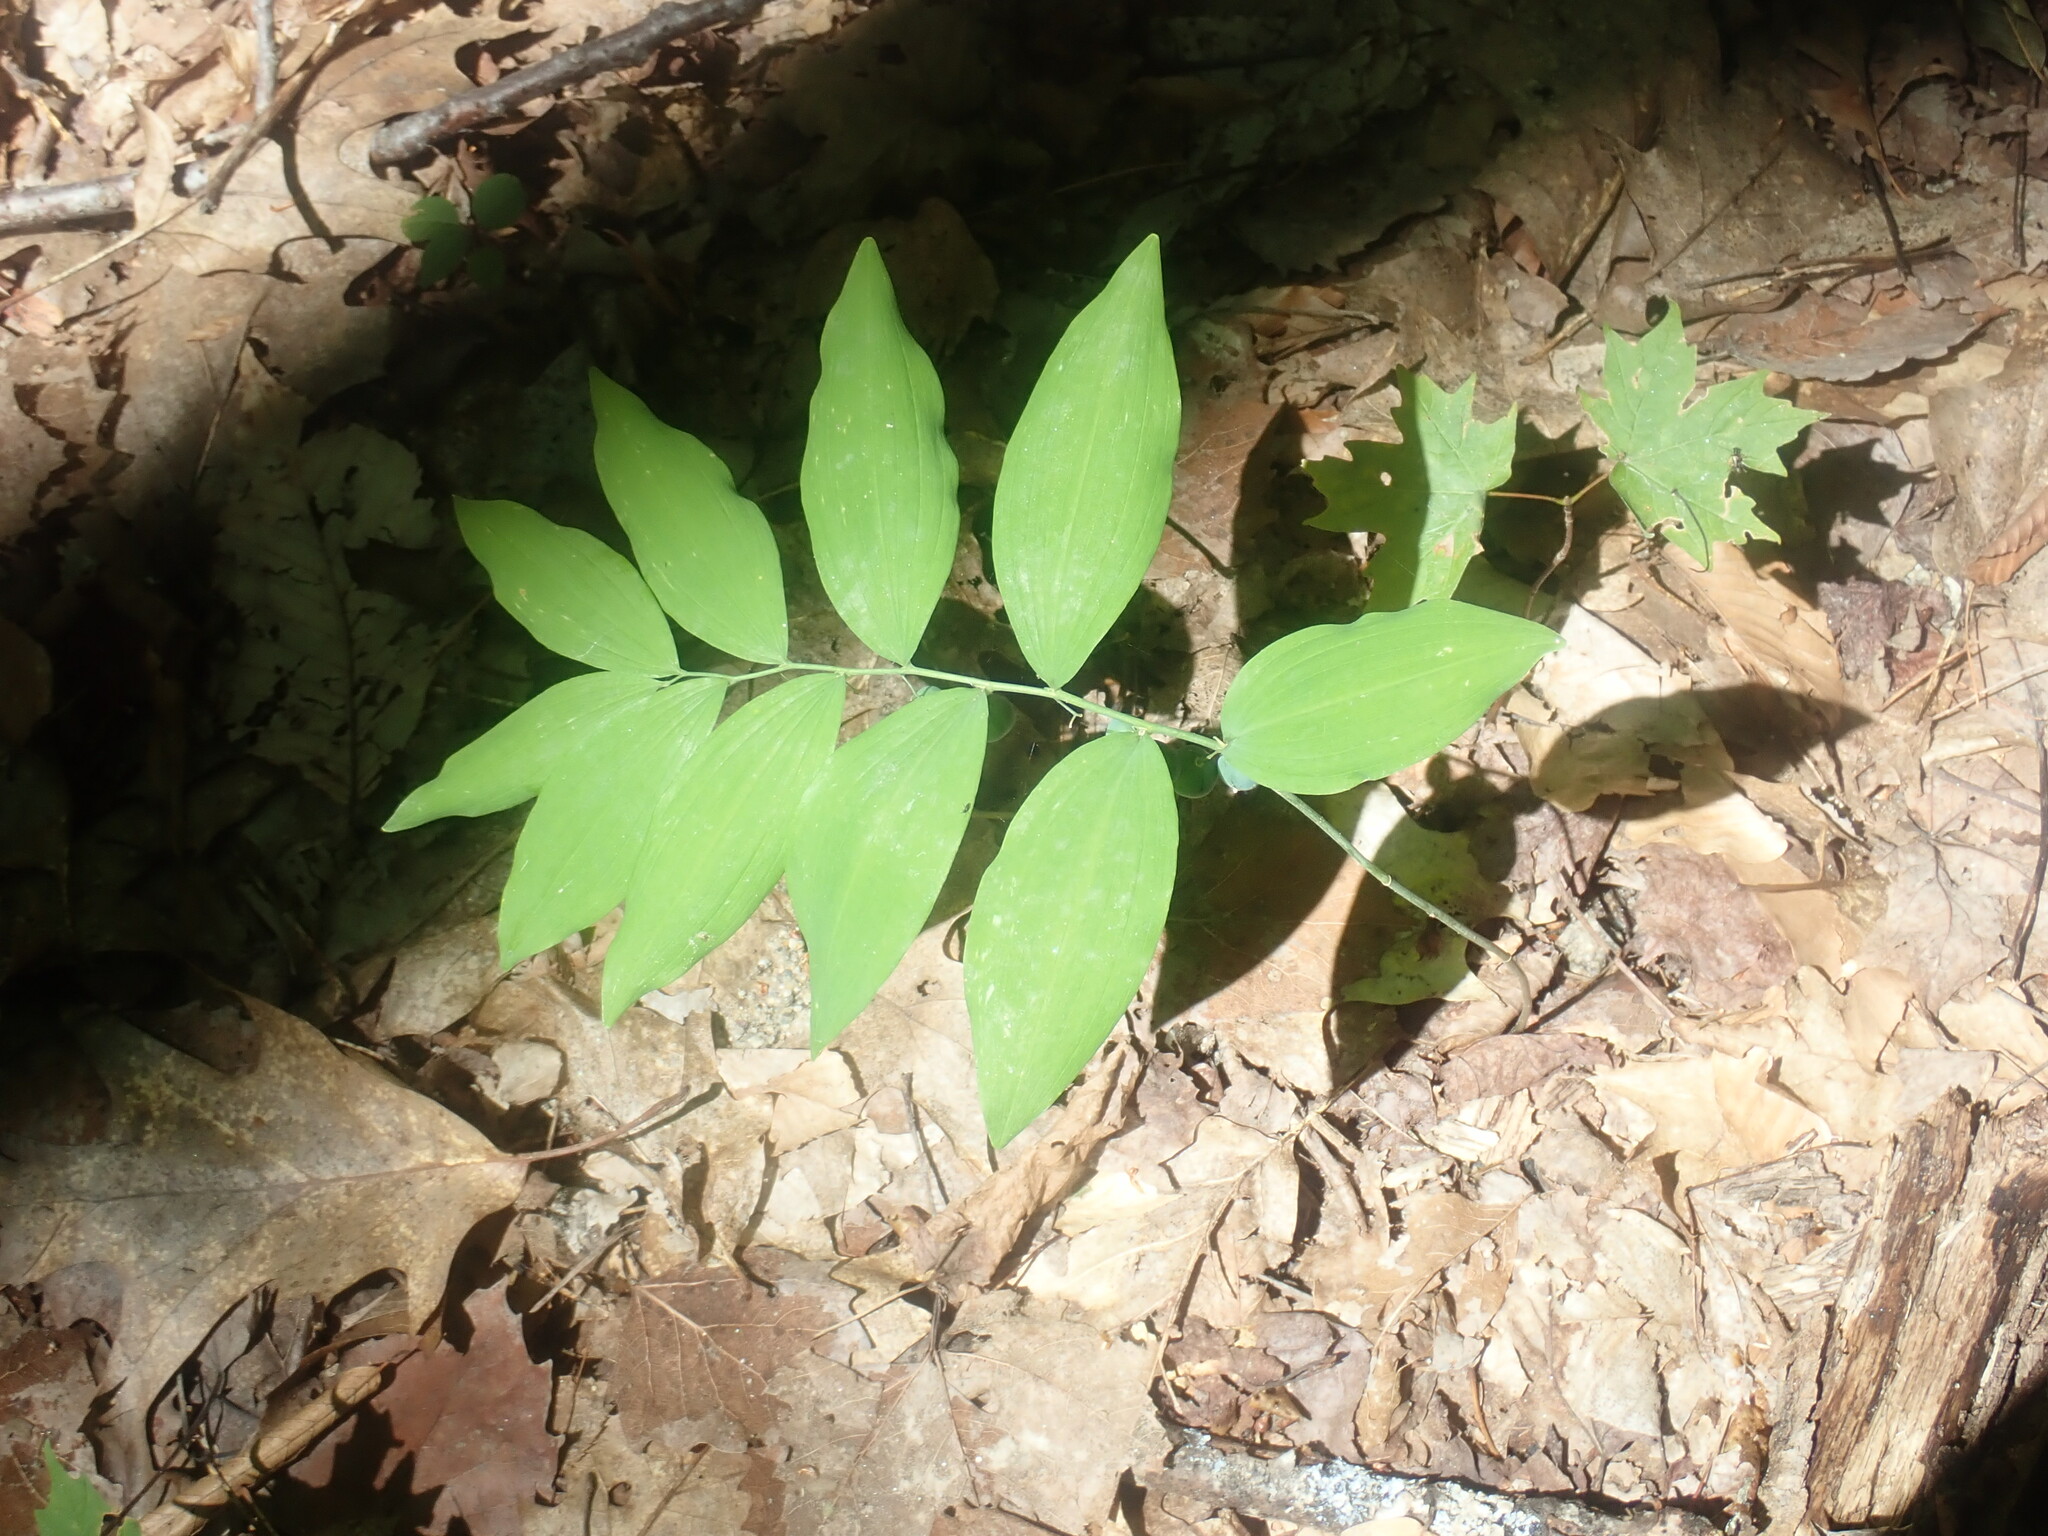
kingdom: Plantae
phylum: Tracheophyta
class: Liliopsida
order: Asparagales
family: Asparagaceae
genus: Polygonatum
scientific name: Polygonatum pubescens
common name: Downy solomon's seal
